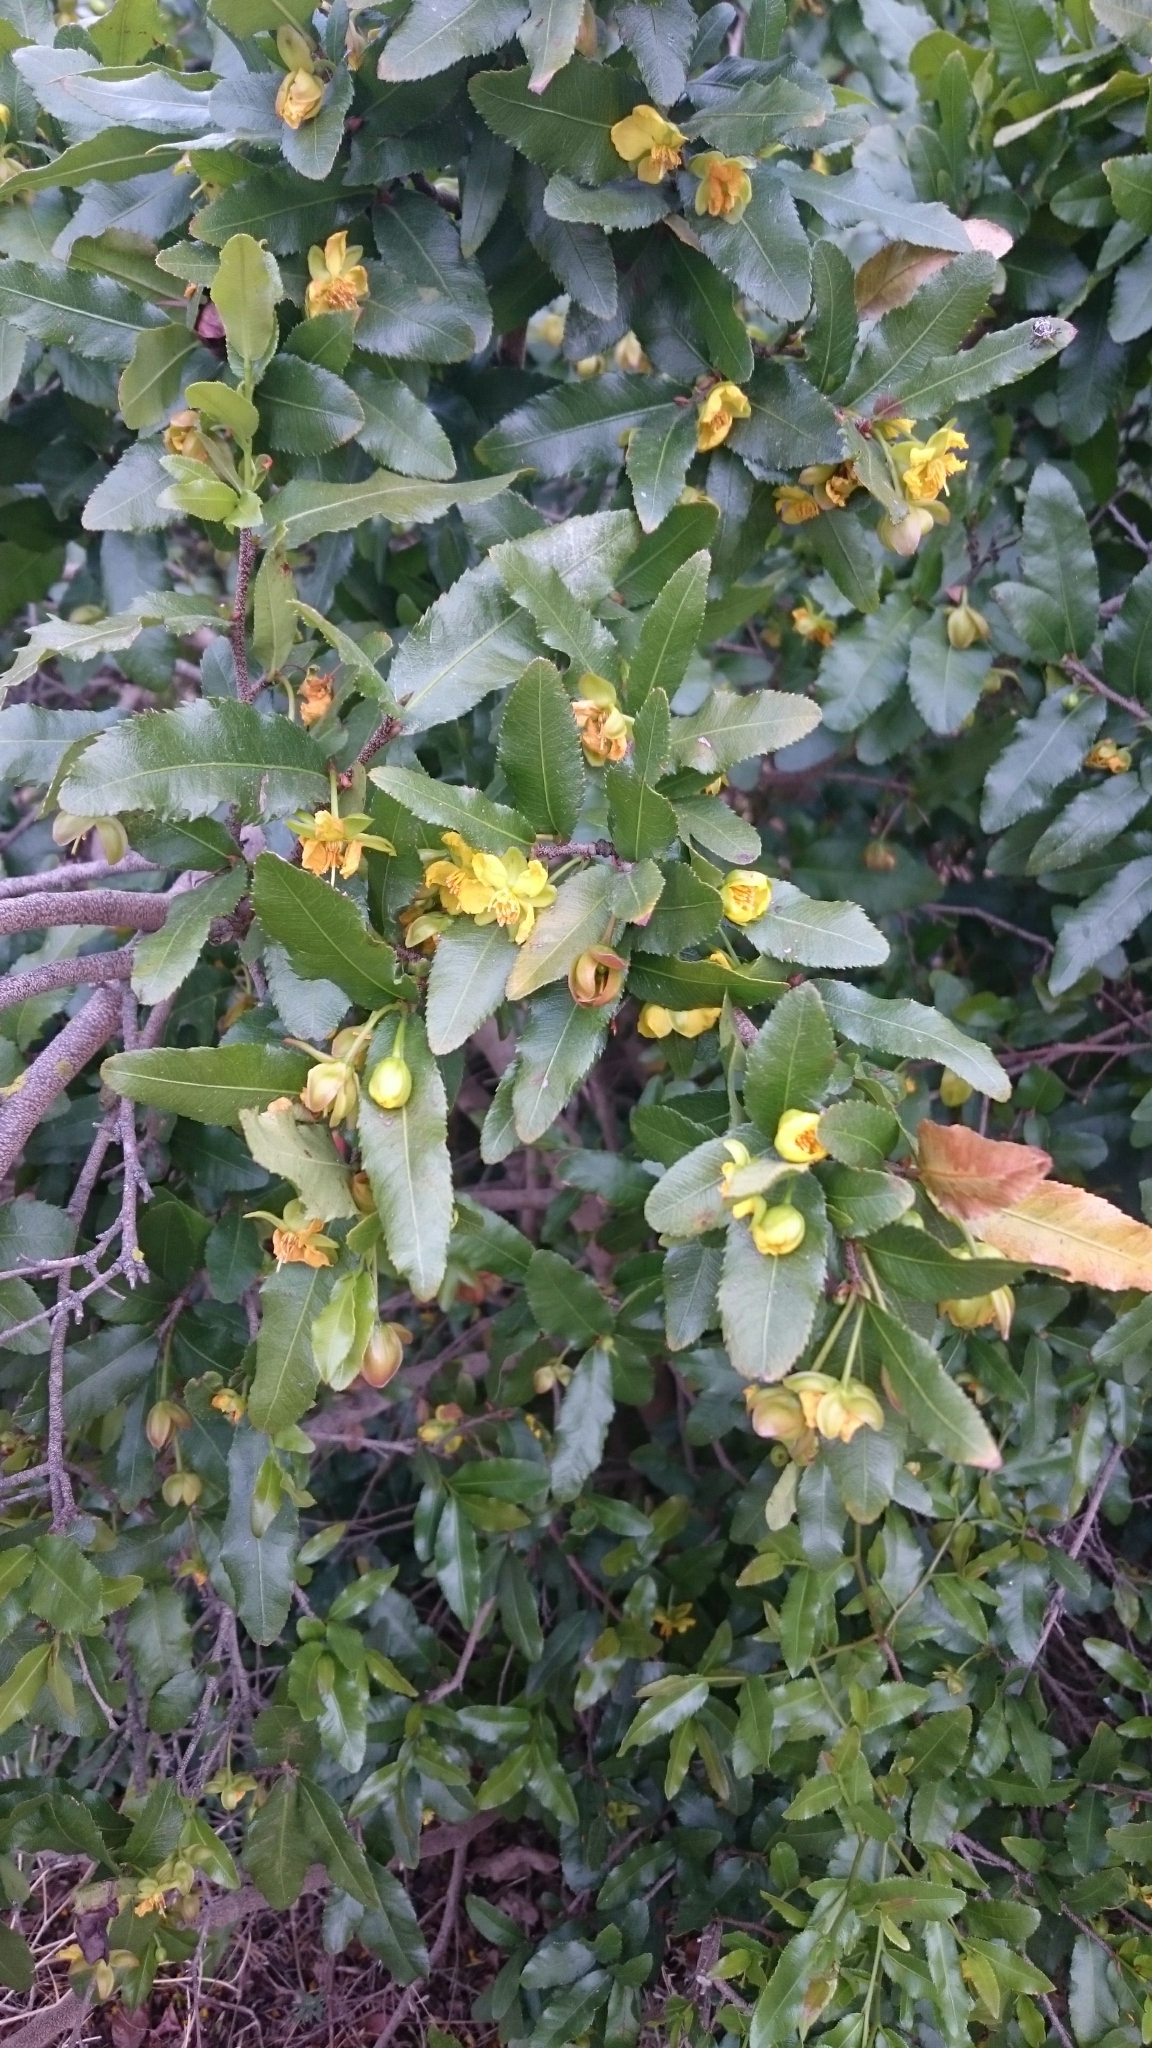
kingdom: Plantae
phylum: Tracheophyta
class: Magnoliopsida
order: Malpighiales
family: Ochnaceae
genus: Ochna
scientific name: Ochna serrulata
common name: Mickey mouse plant
